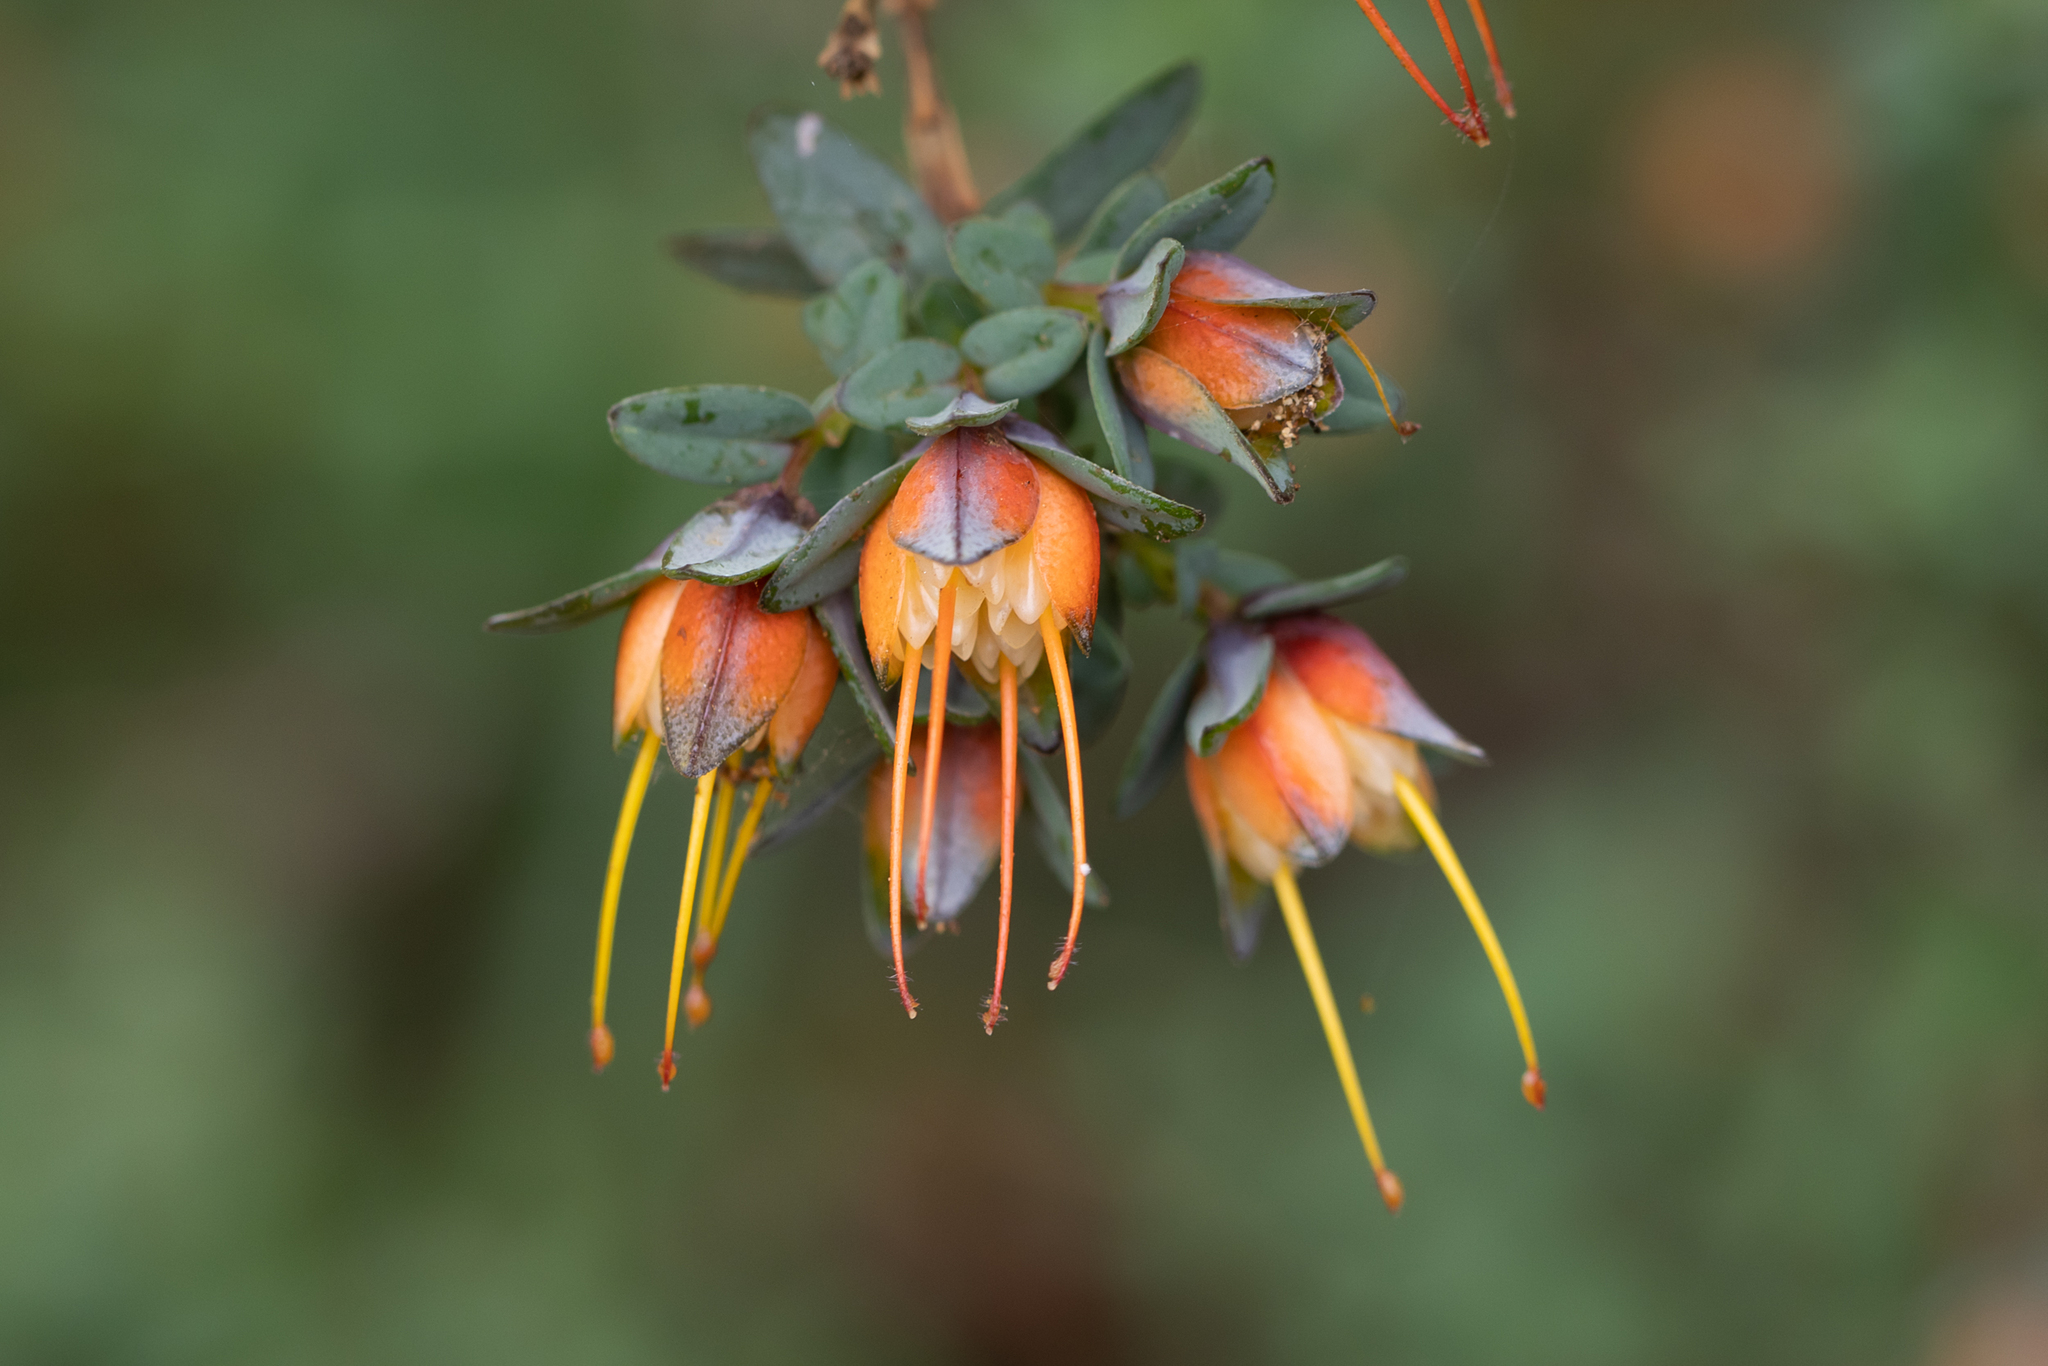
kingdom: Plantae
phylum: Tracheophyta
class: Magnoliopsida
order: Myrtales
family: Myrtaceae
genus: Darwinia
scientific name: Darwinia citriodora
